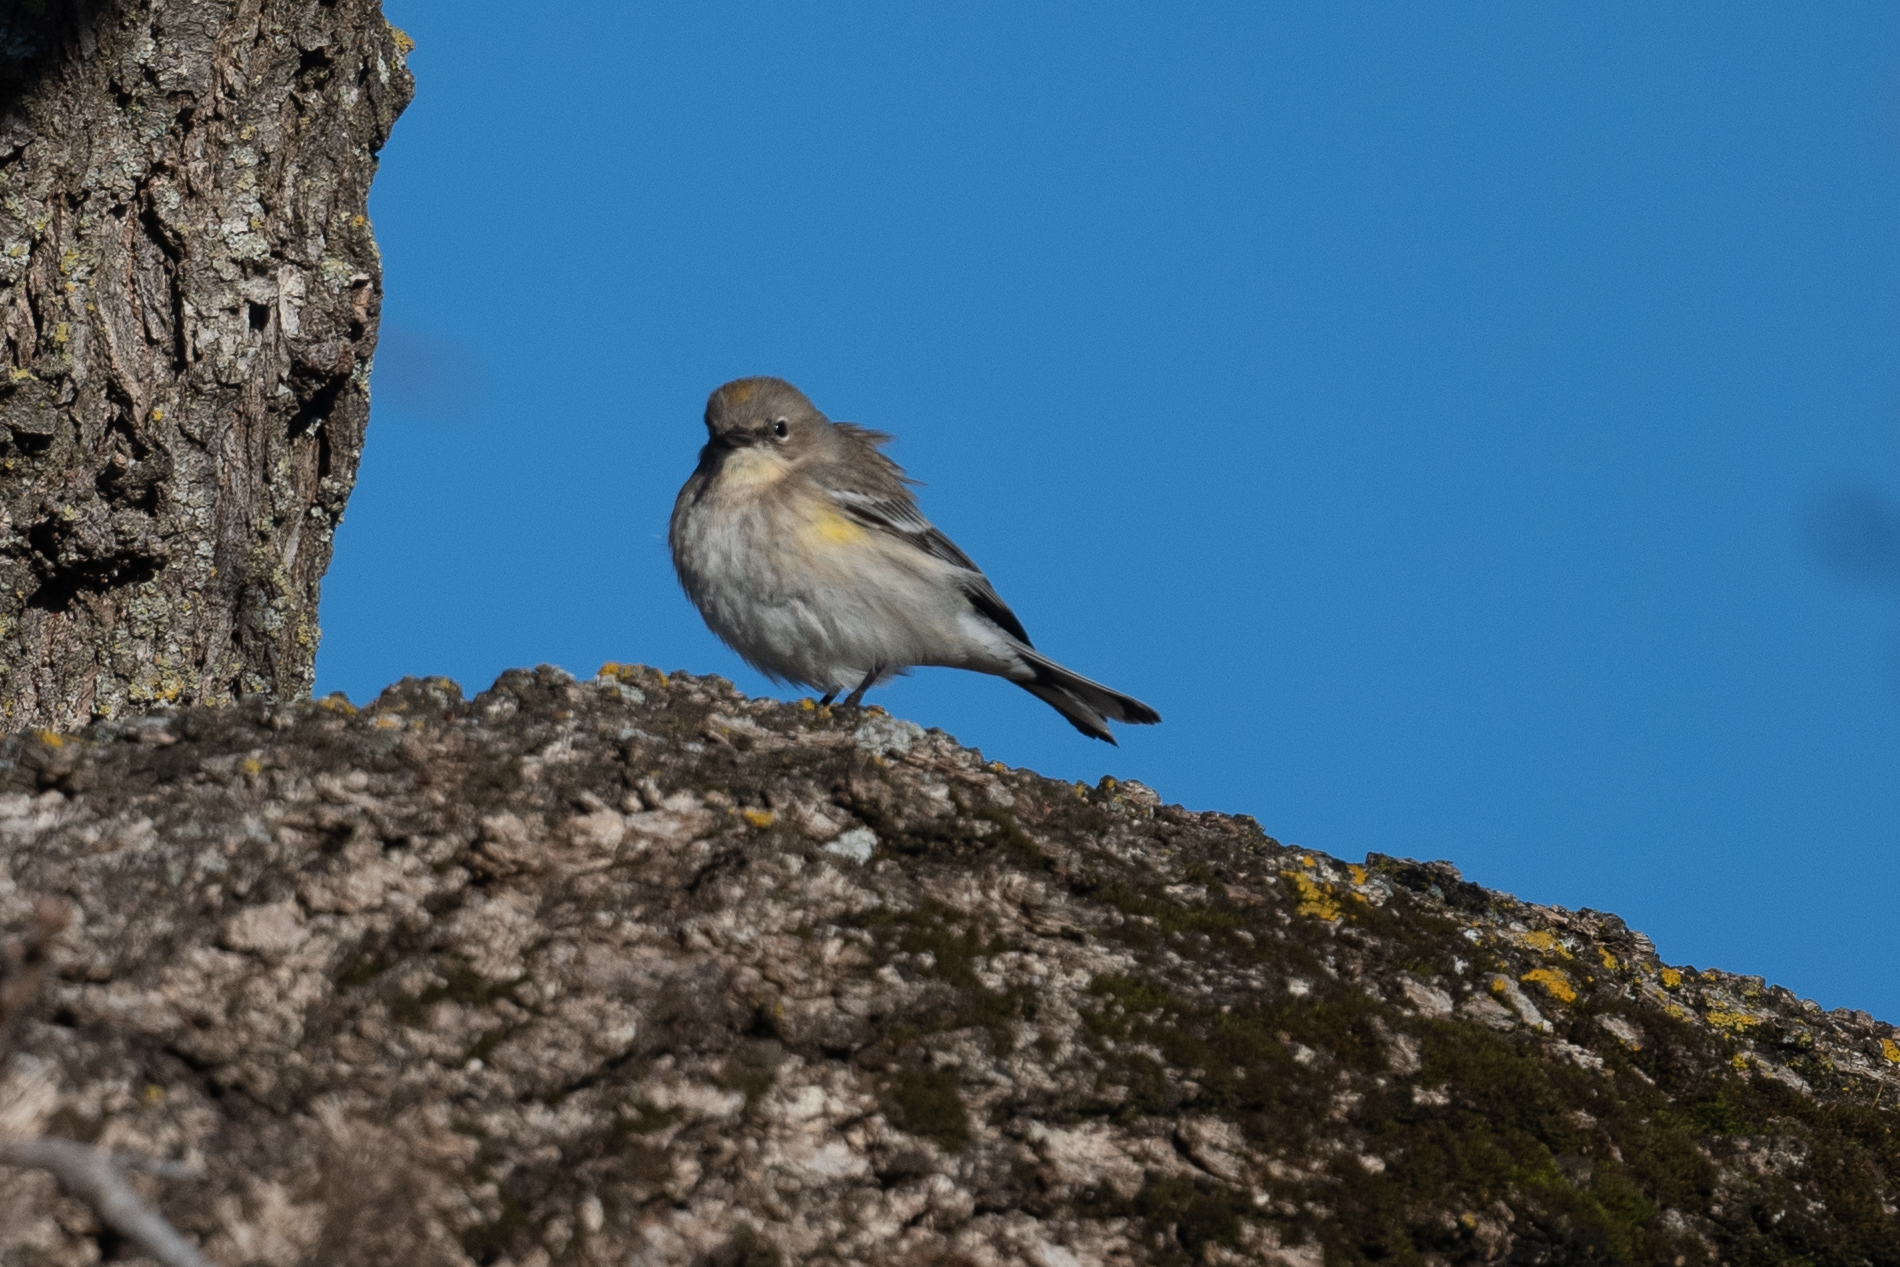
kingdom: Animalia
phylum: Chordata
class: Aves
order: Passeriformes
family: Parulidae
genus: Setophaga
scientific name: Setophaga coronata
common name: Myrtle warbler
